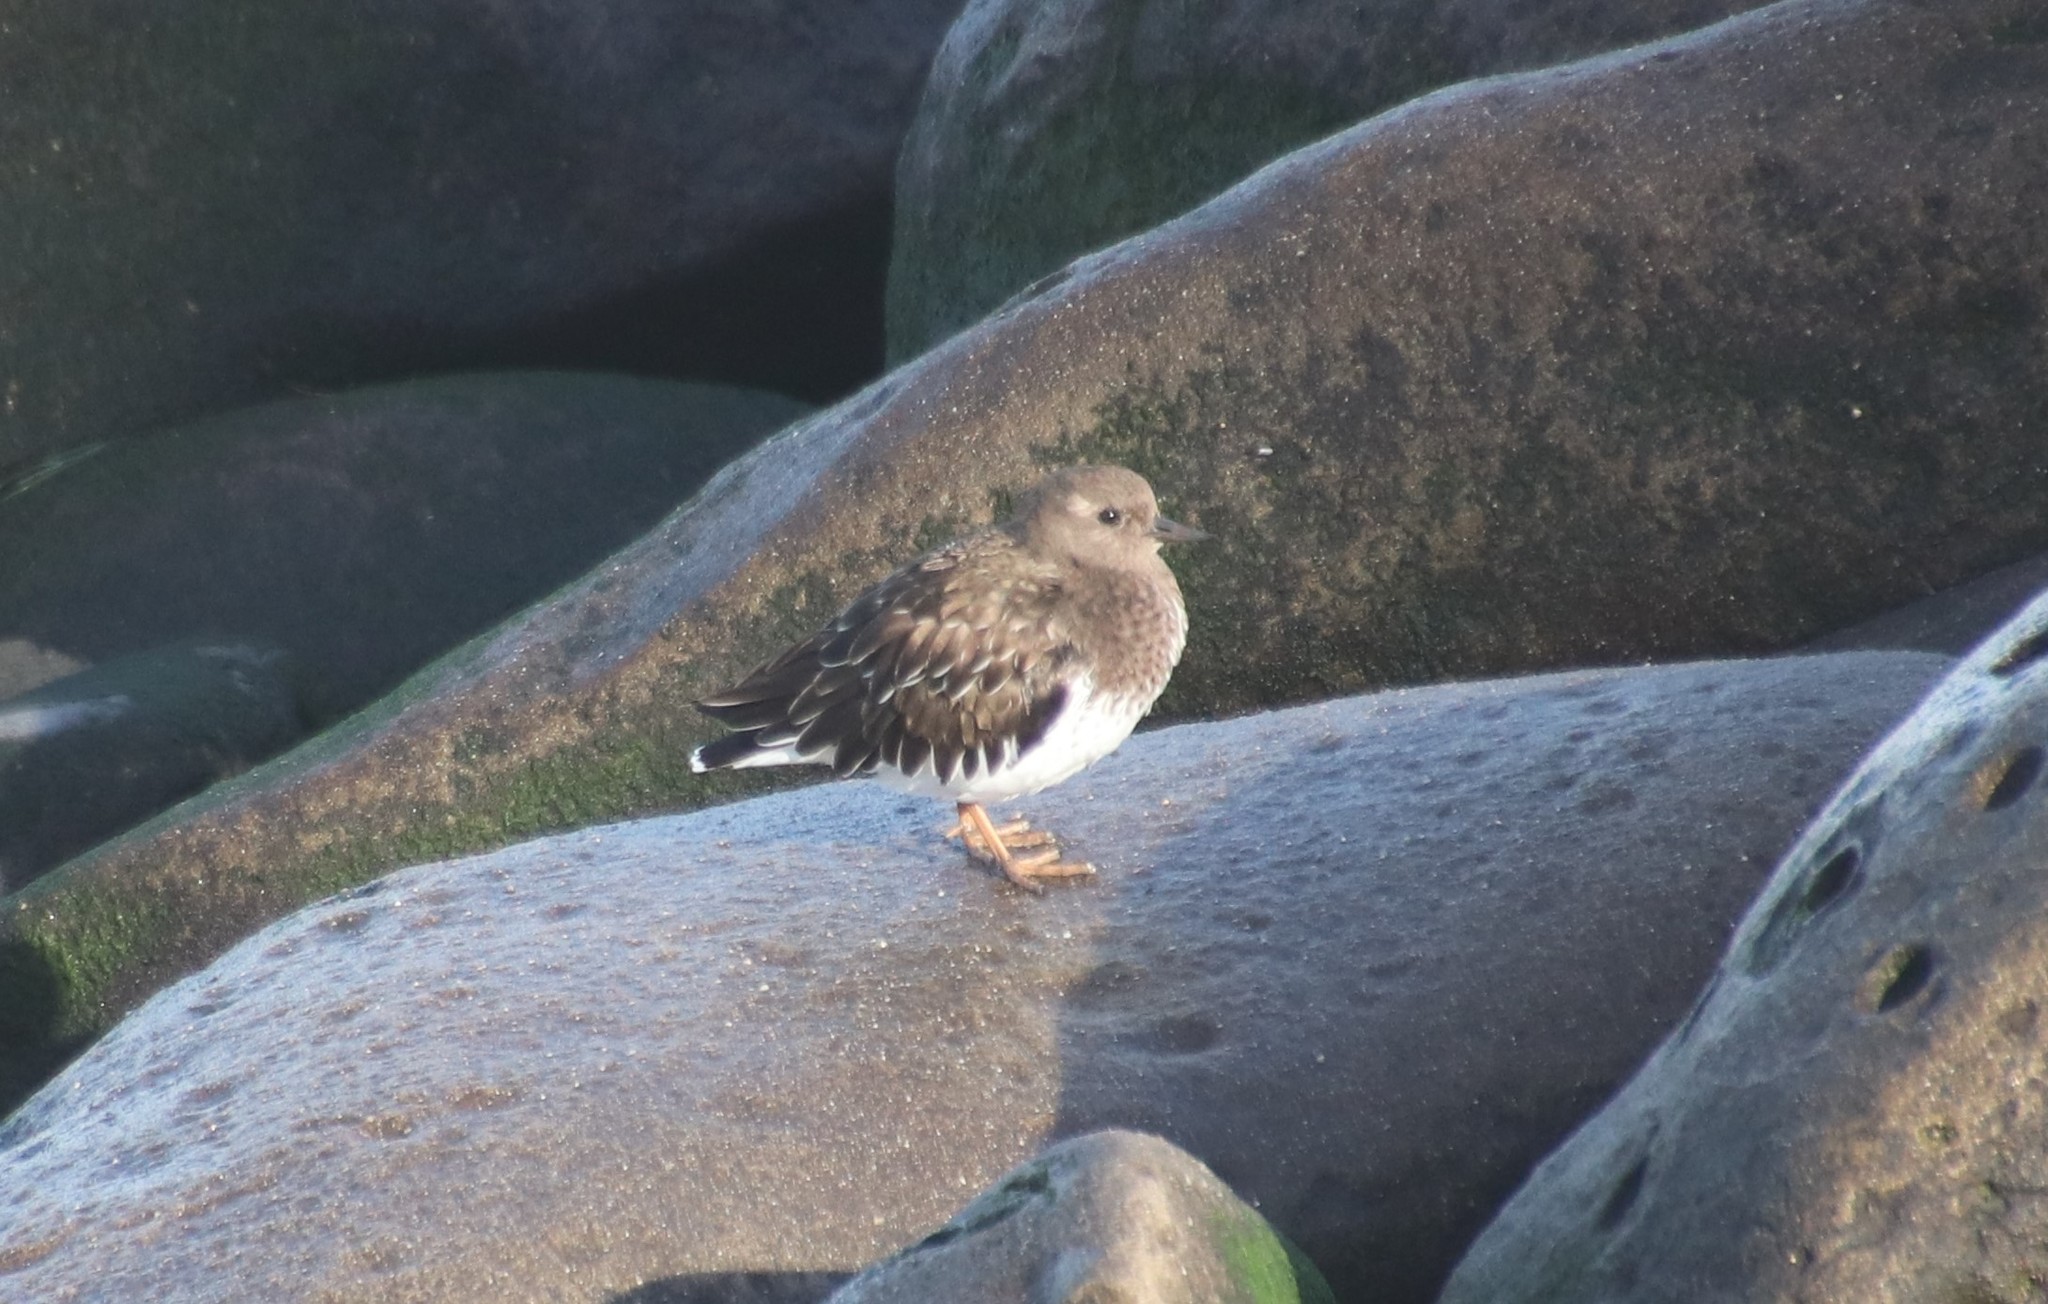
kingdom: Animalia
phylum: Chordata
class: Aves
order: Charadriiformes
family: Scolopacidae
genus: Arenaria
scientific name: Arenaria melanocephala
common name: Black turnstone
